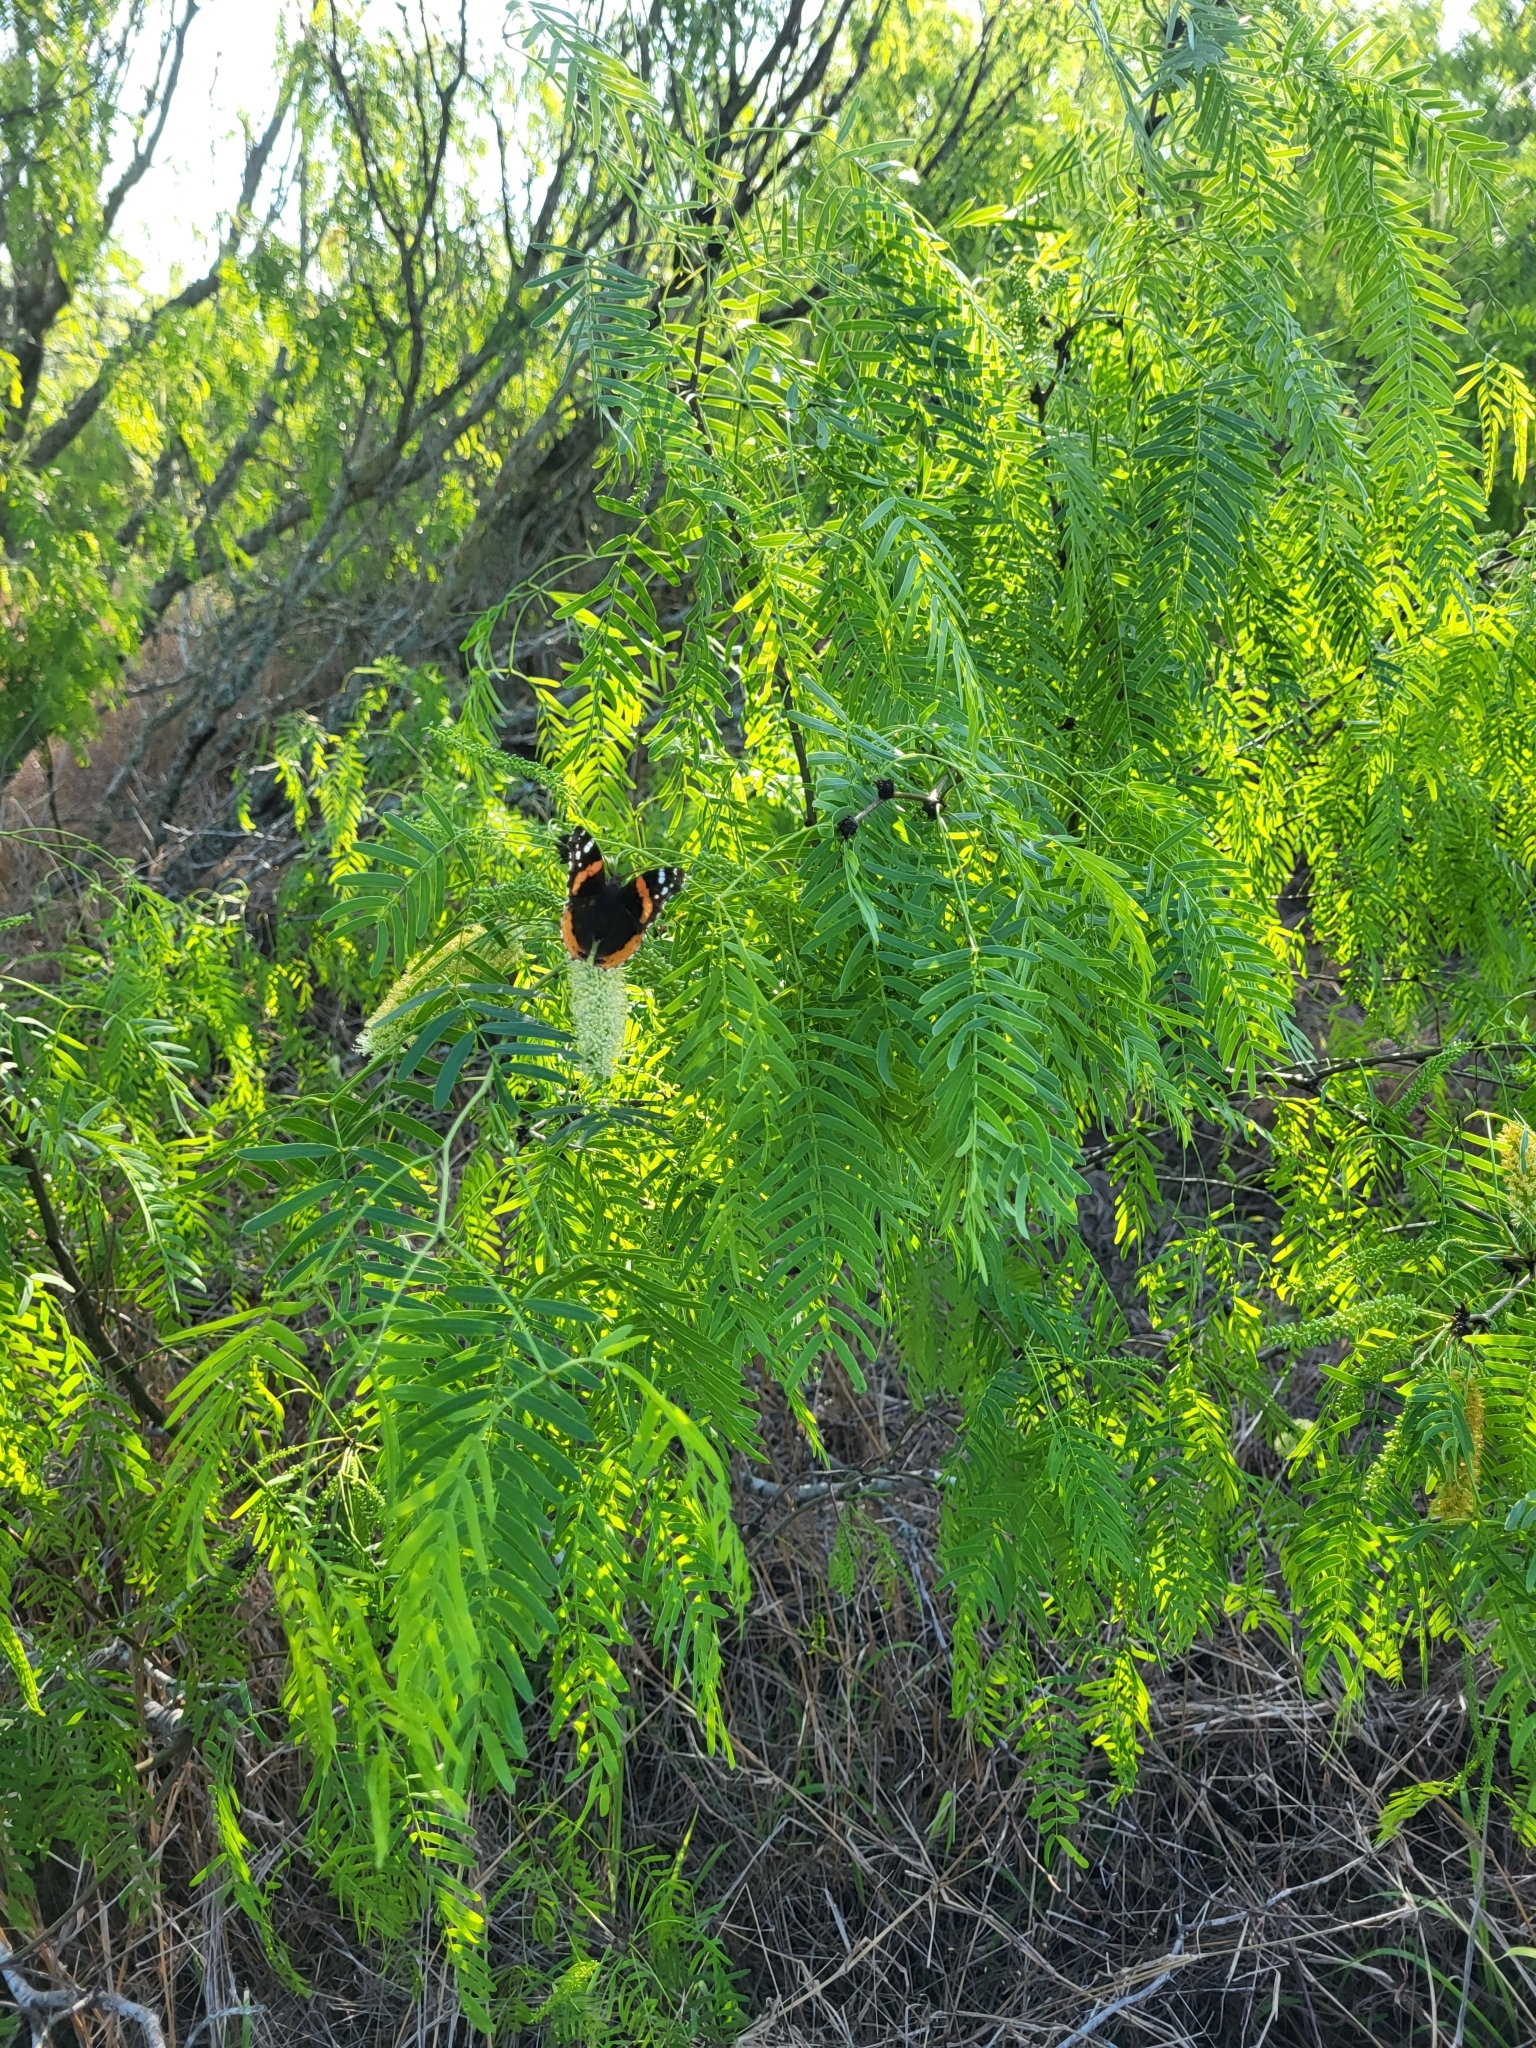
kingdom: Animalia
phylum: Arthropoda
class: Insecta
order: Lepidoptera
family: Nymphalidae
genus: Vanessa
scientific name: Vanessa atalanta
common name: Red admiral
